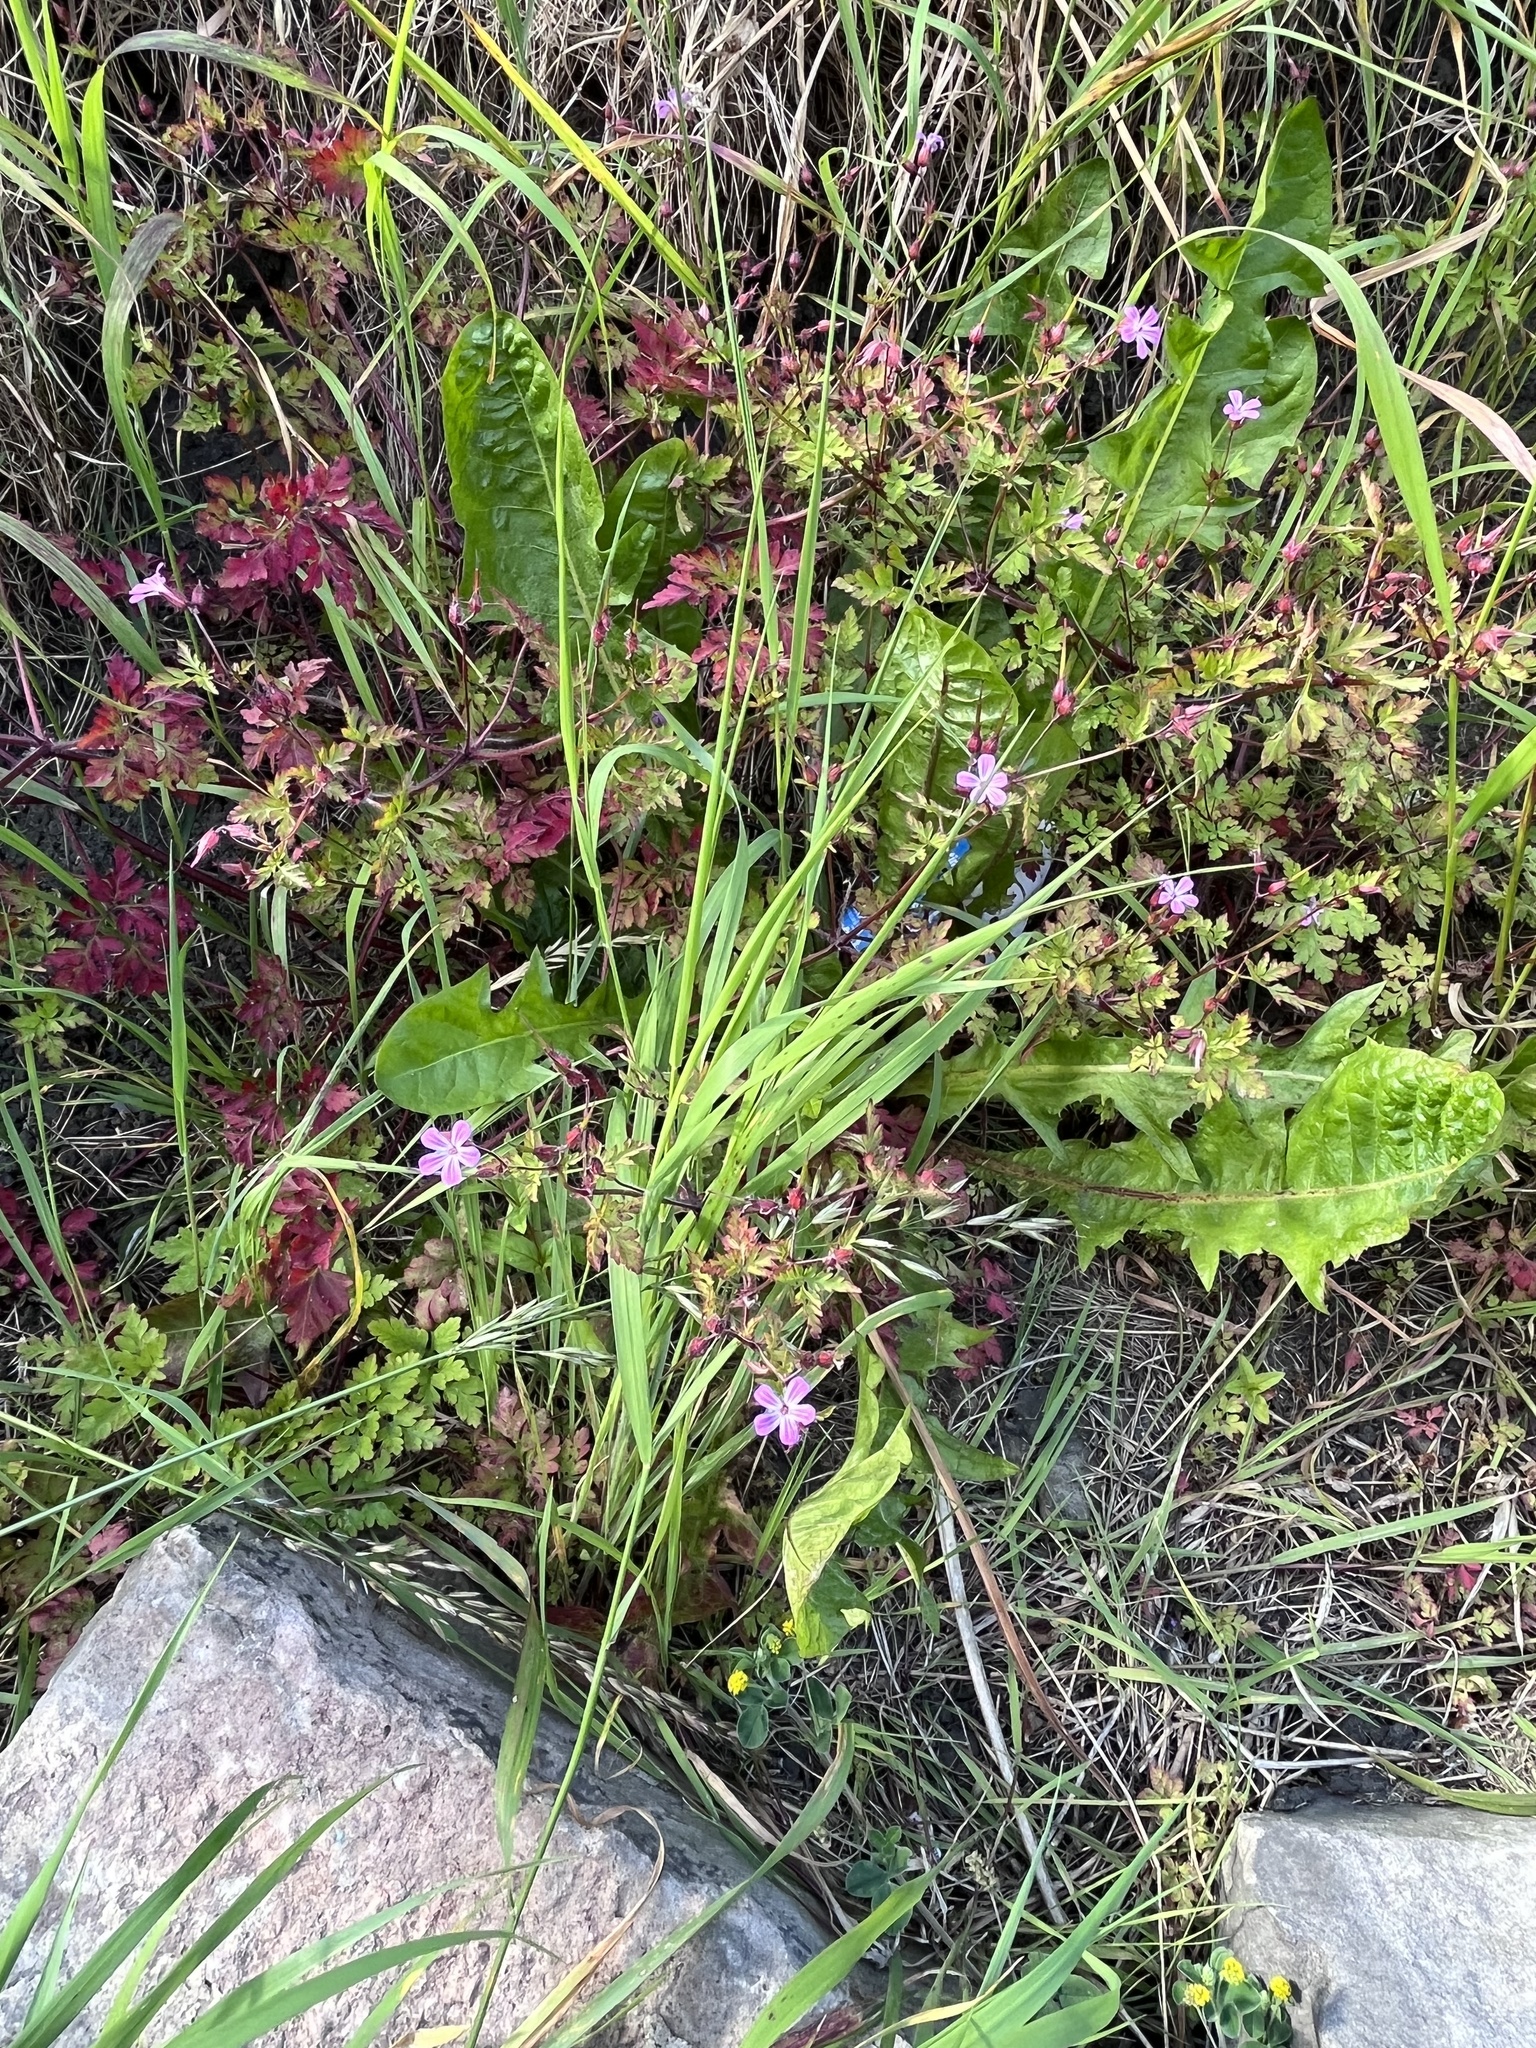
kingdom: Plantae
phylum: Tracheophyta
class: Magnoliopsida
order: Geraniales
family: Geraniaceae
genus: Geranium
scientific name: Geranium robertianum
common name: Herb-robert
